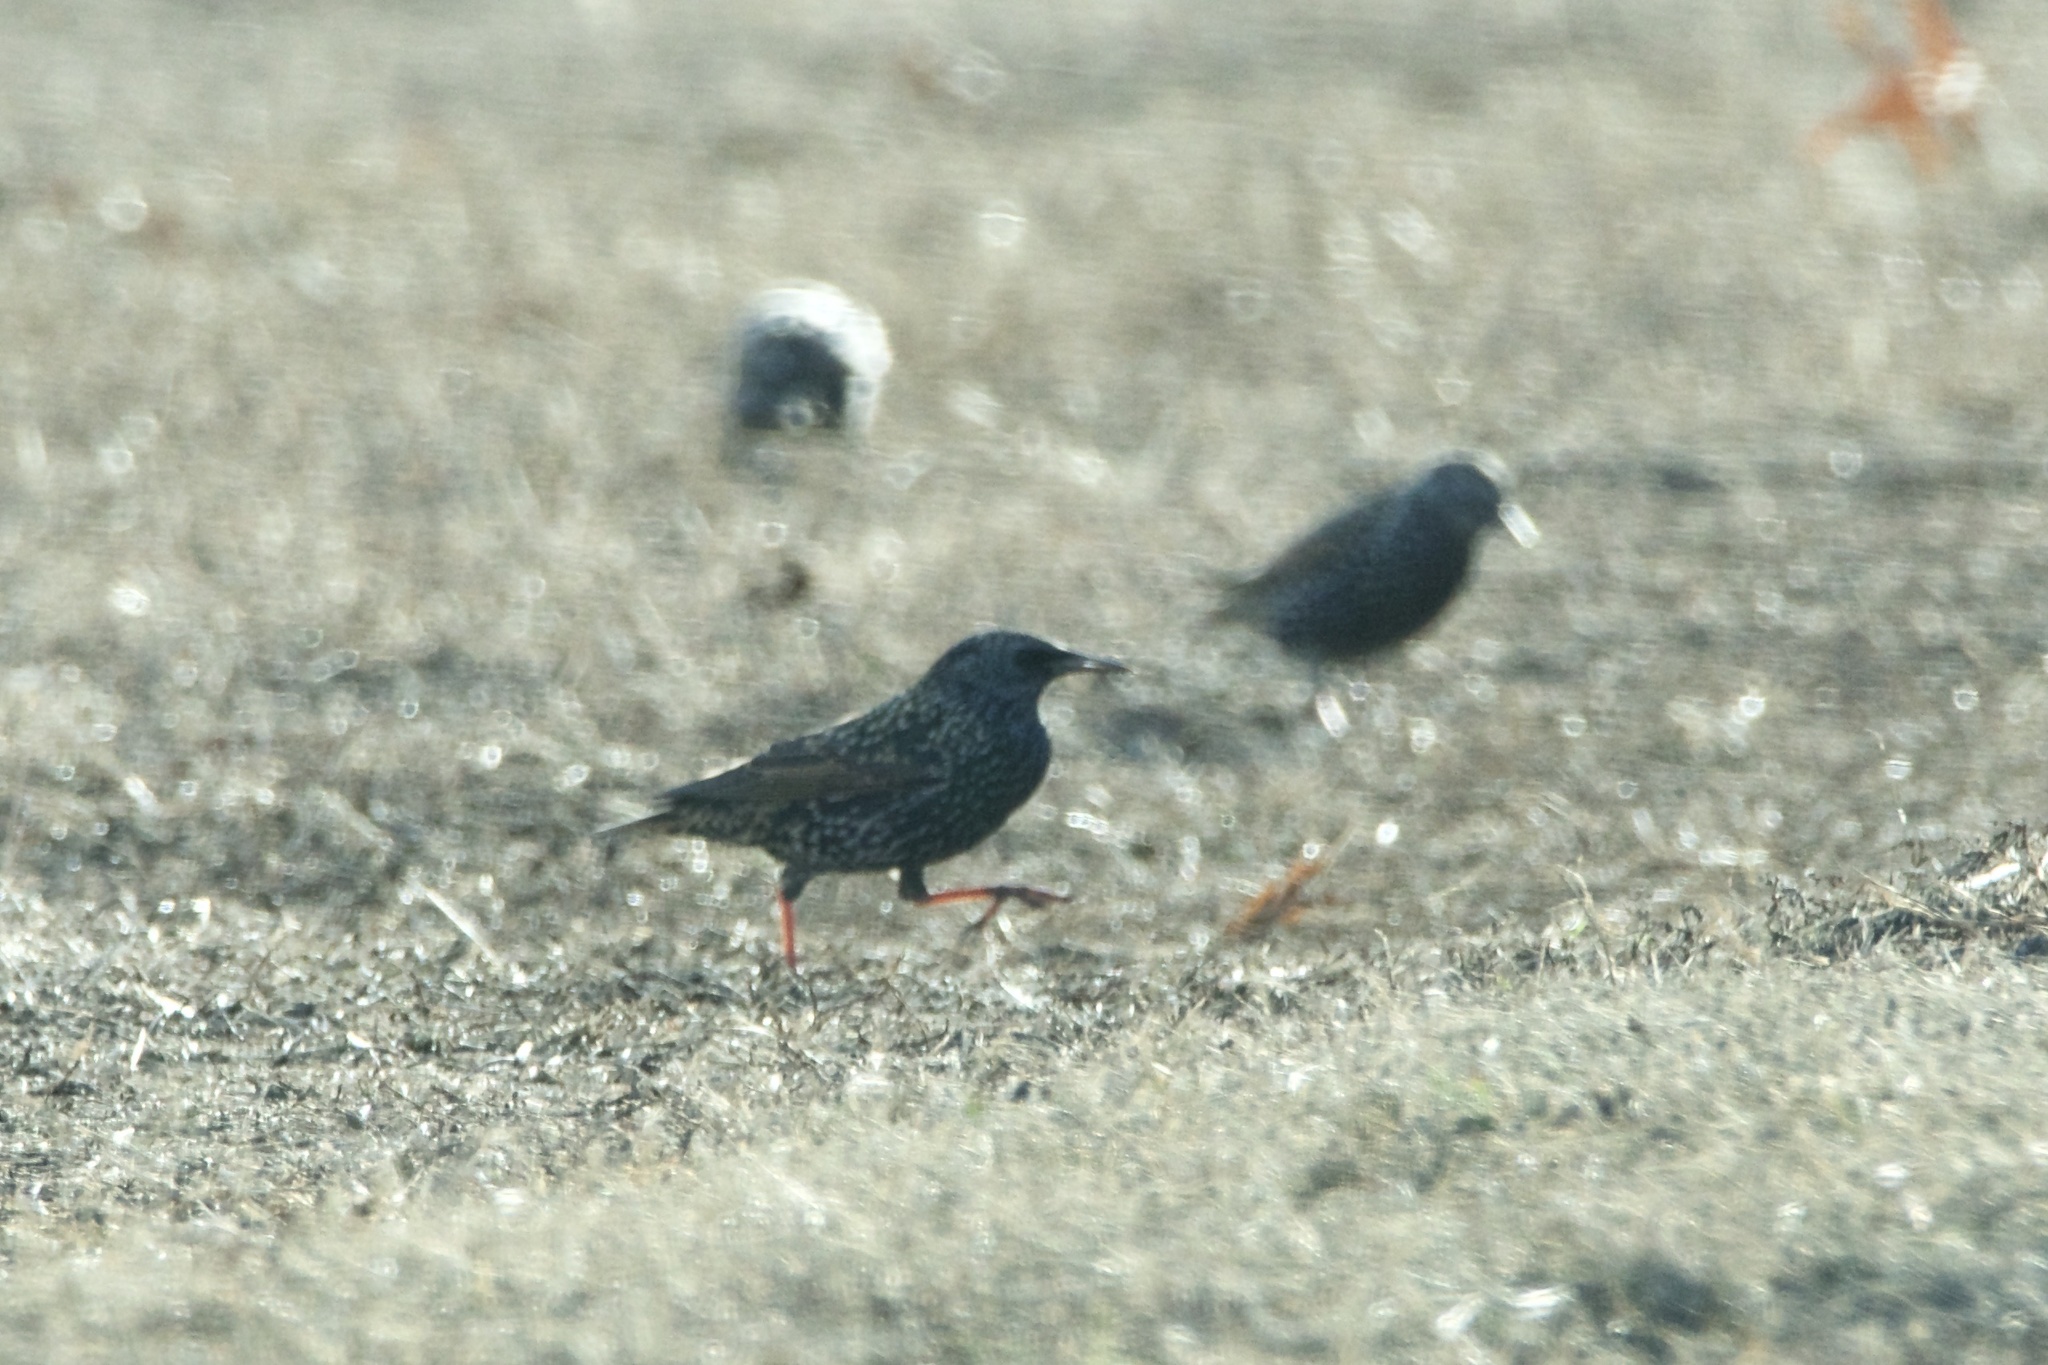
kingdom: Animalia
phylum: Chordata
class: Aves
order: Passeriformes
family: Sturnidae
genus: Sturnus
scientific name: Sturnus vulgaris
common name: Common starling
